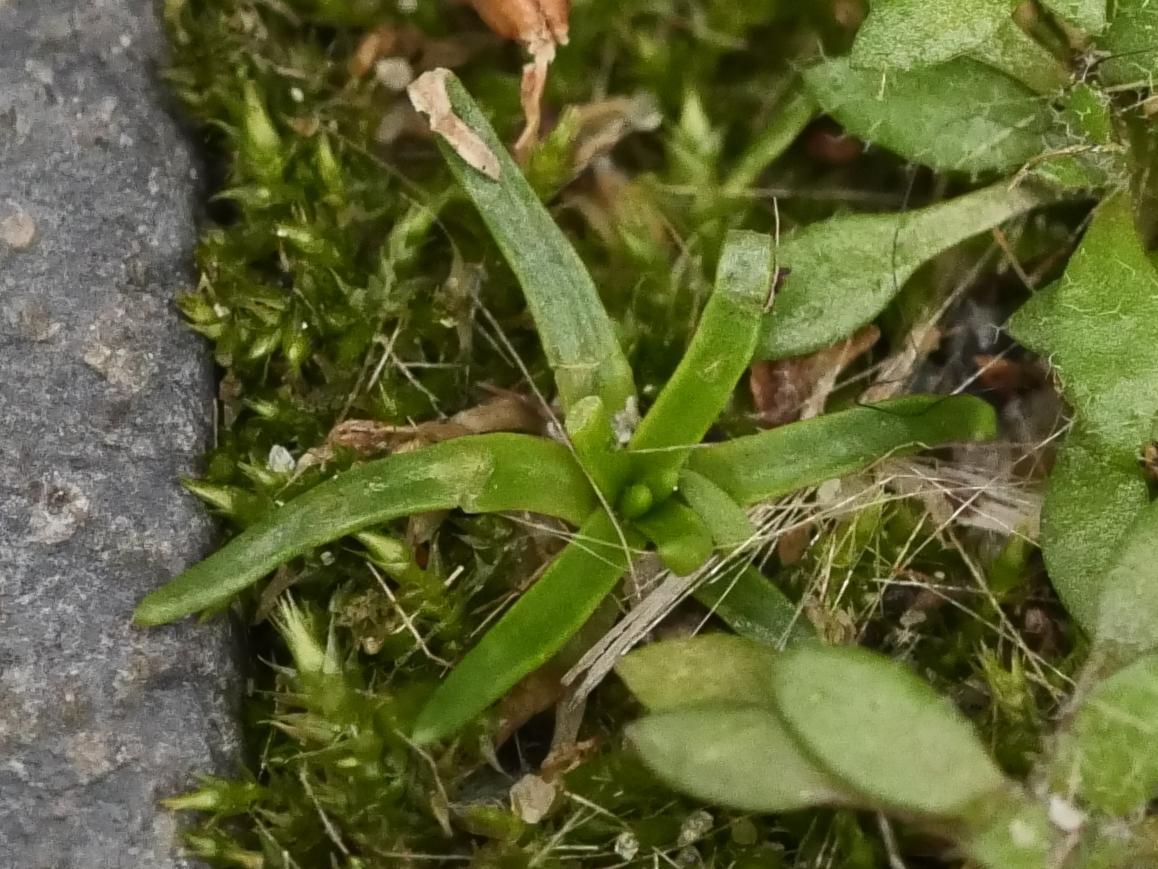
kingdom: Plantae
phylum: Tracheophyta
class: Magnoliopsida
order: Caryophyllales
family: Caryophyllaceae
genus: Sagina
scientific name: Sagina procumbens
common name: Procumbent pearlwort
